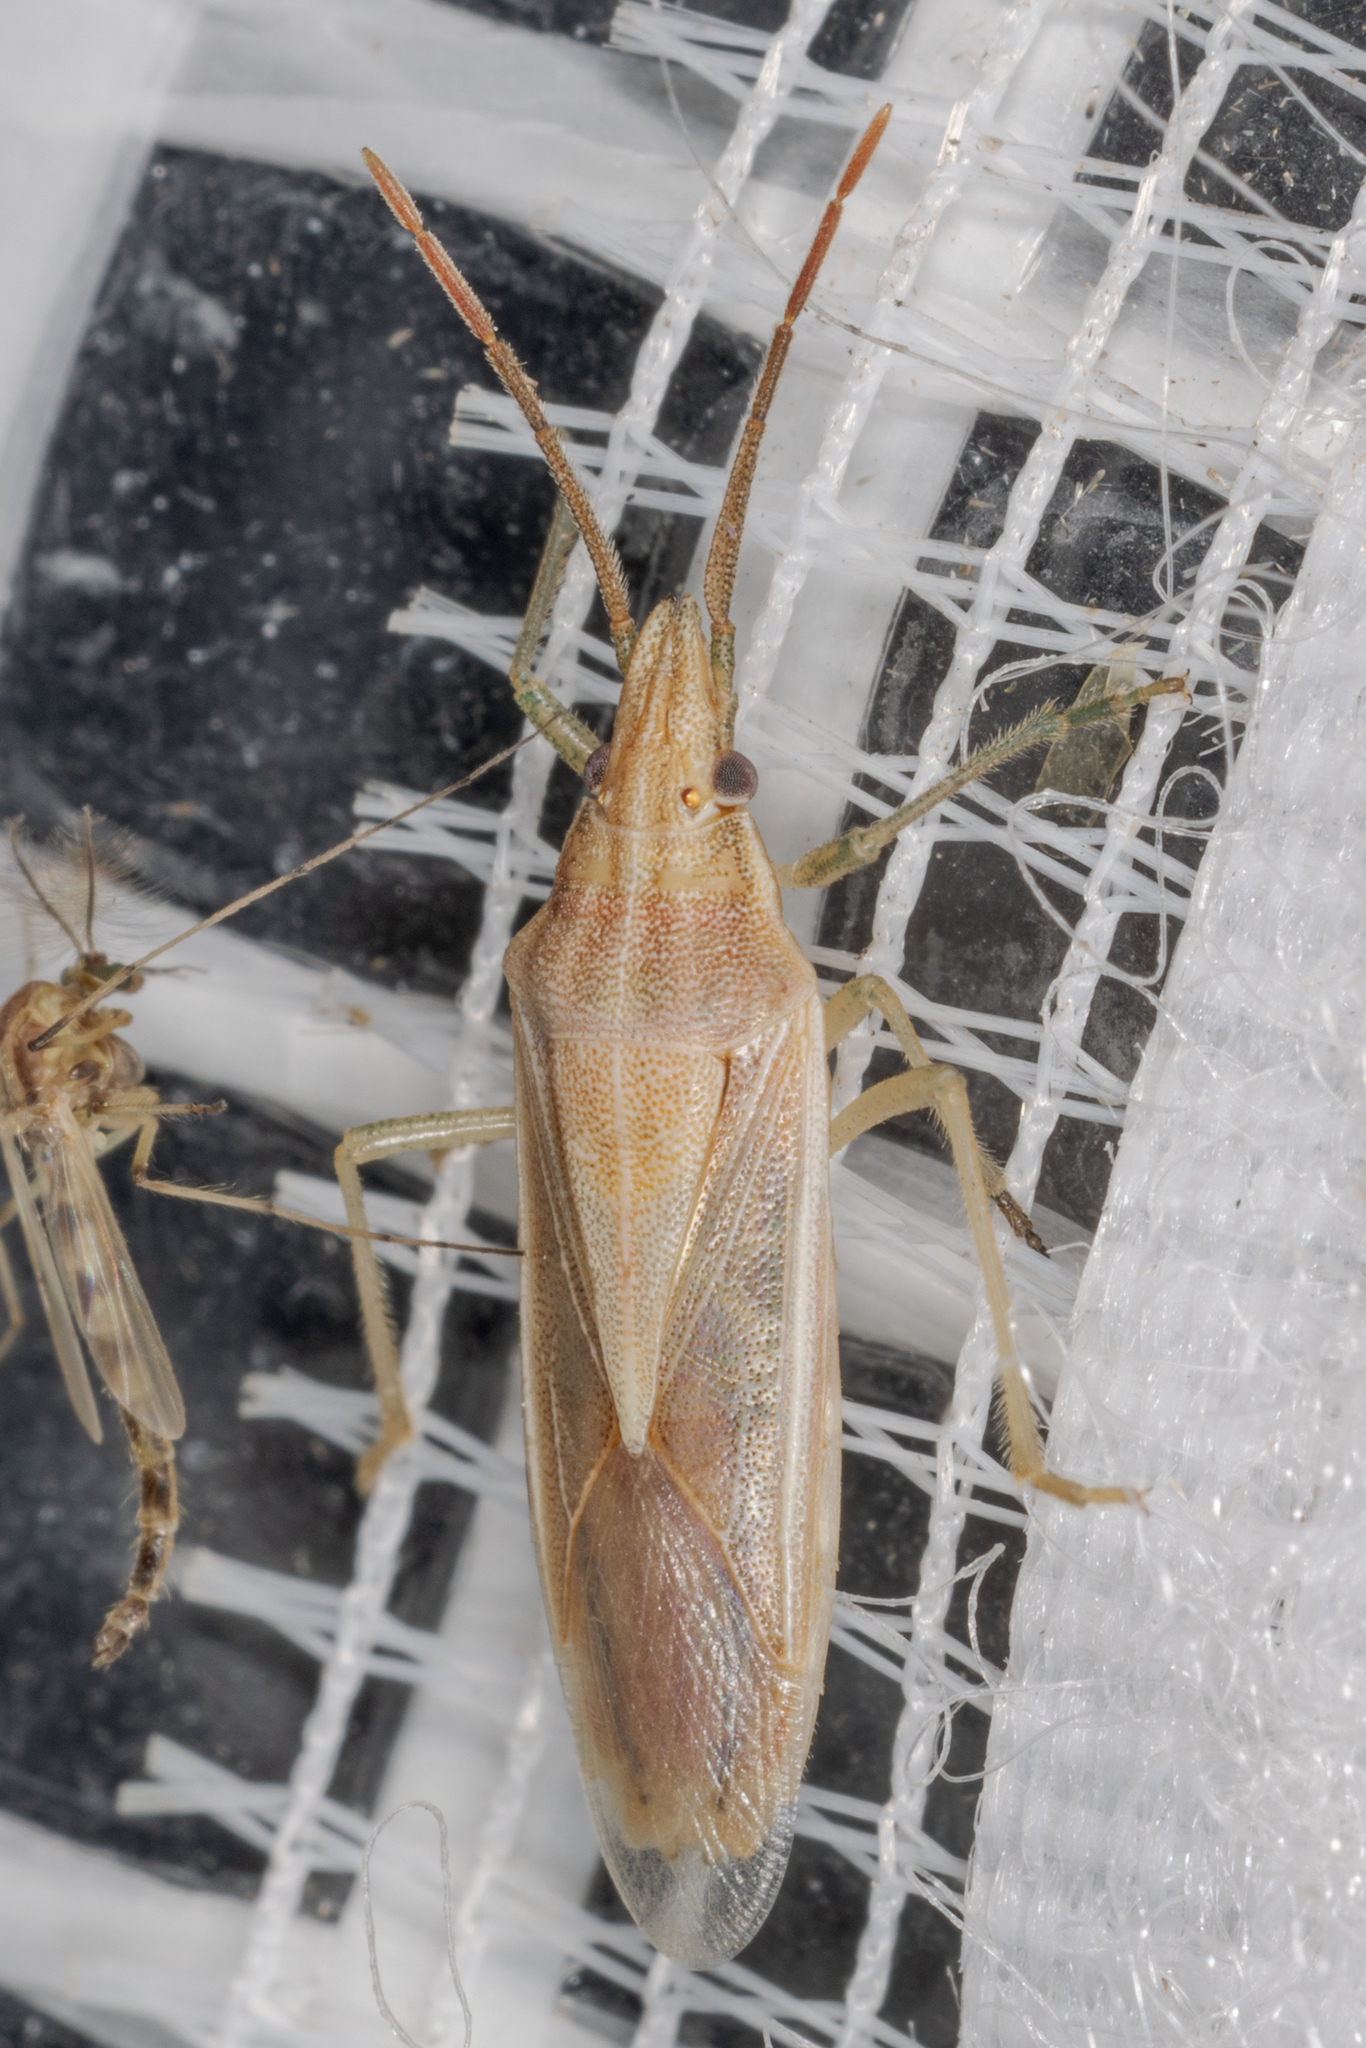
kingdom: Animalia
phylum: Arthropoda
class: Insecta
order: Hemiptera
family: Pentatomidae
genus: Mecidea
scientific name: Mecidea major
